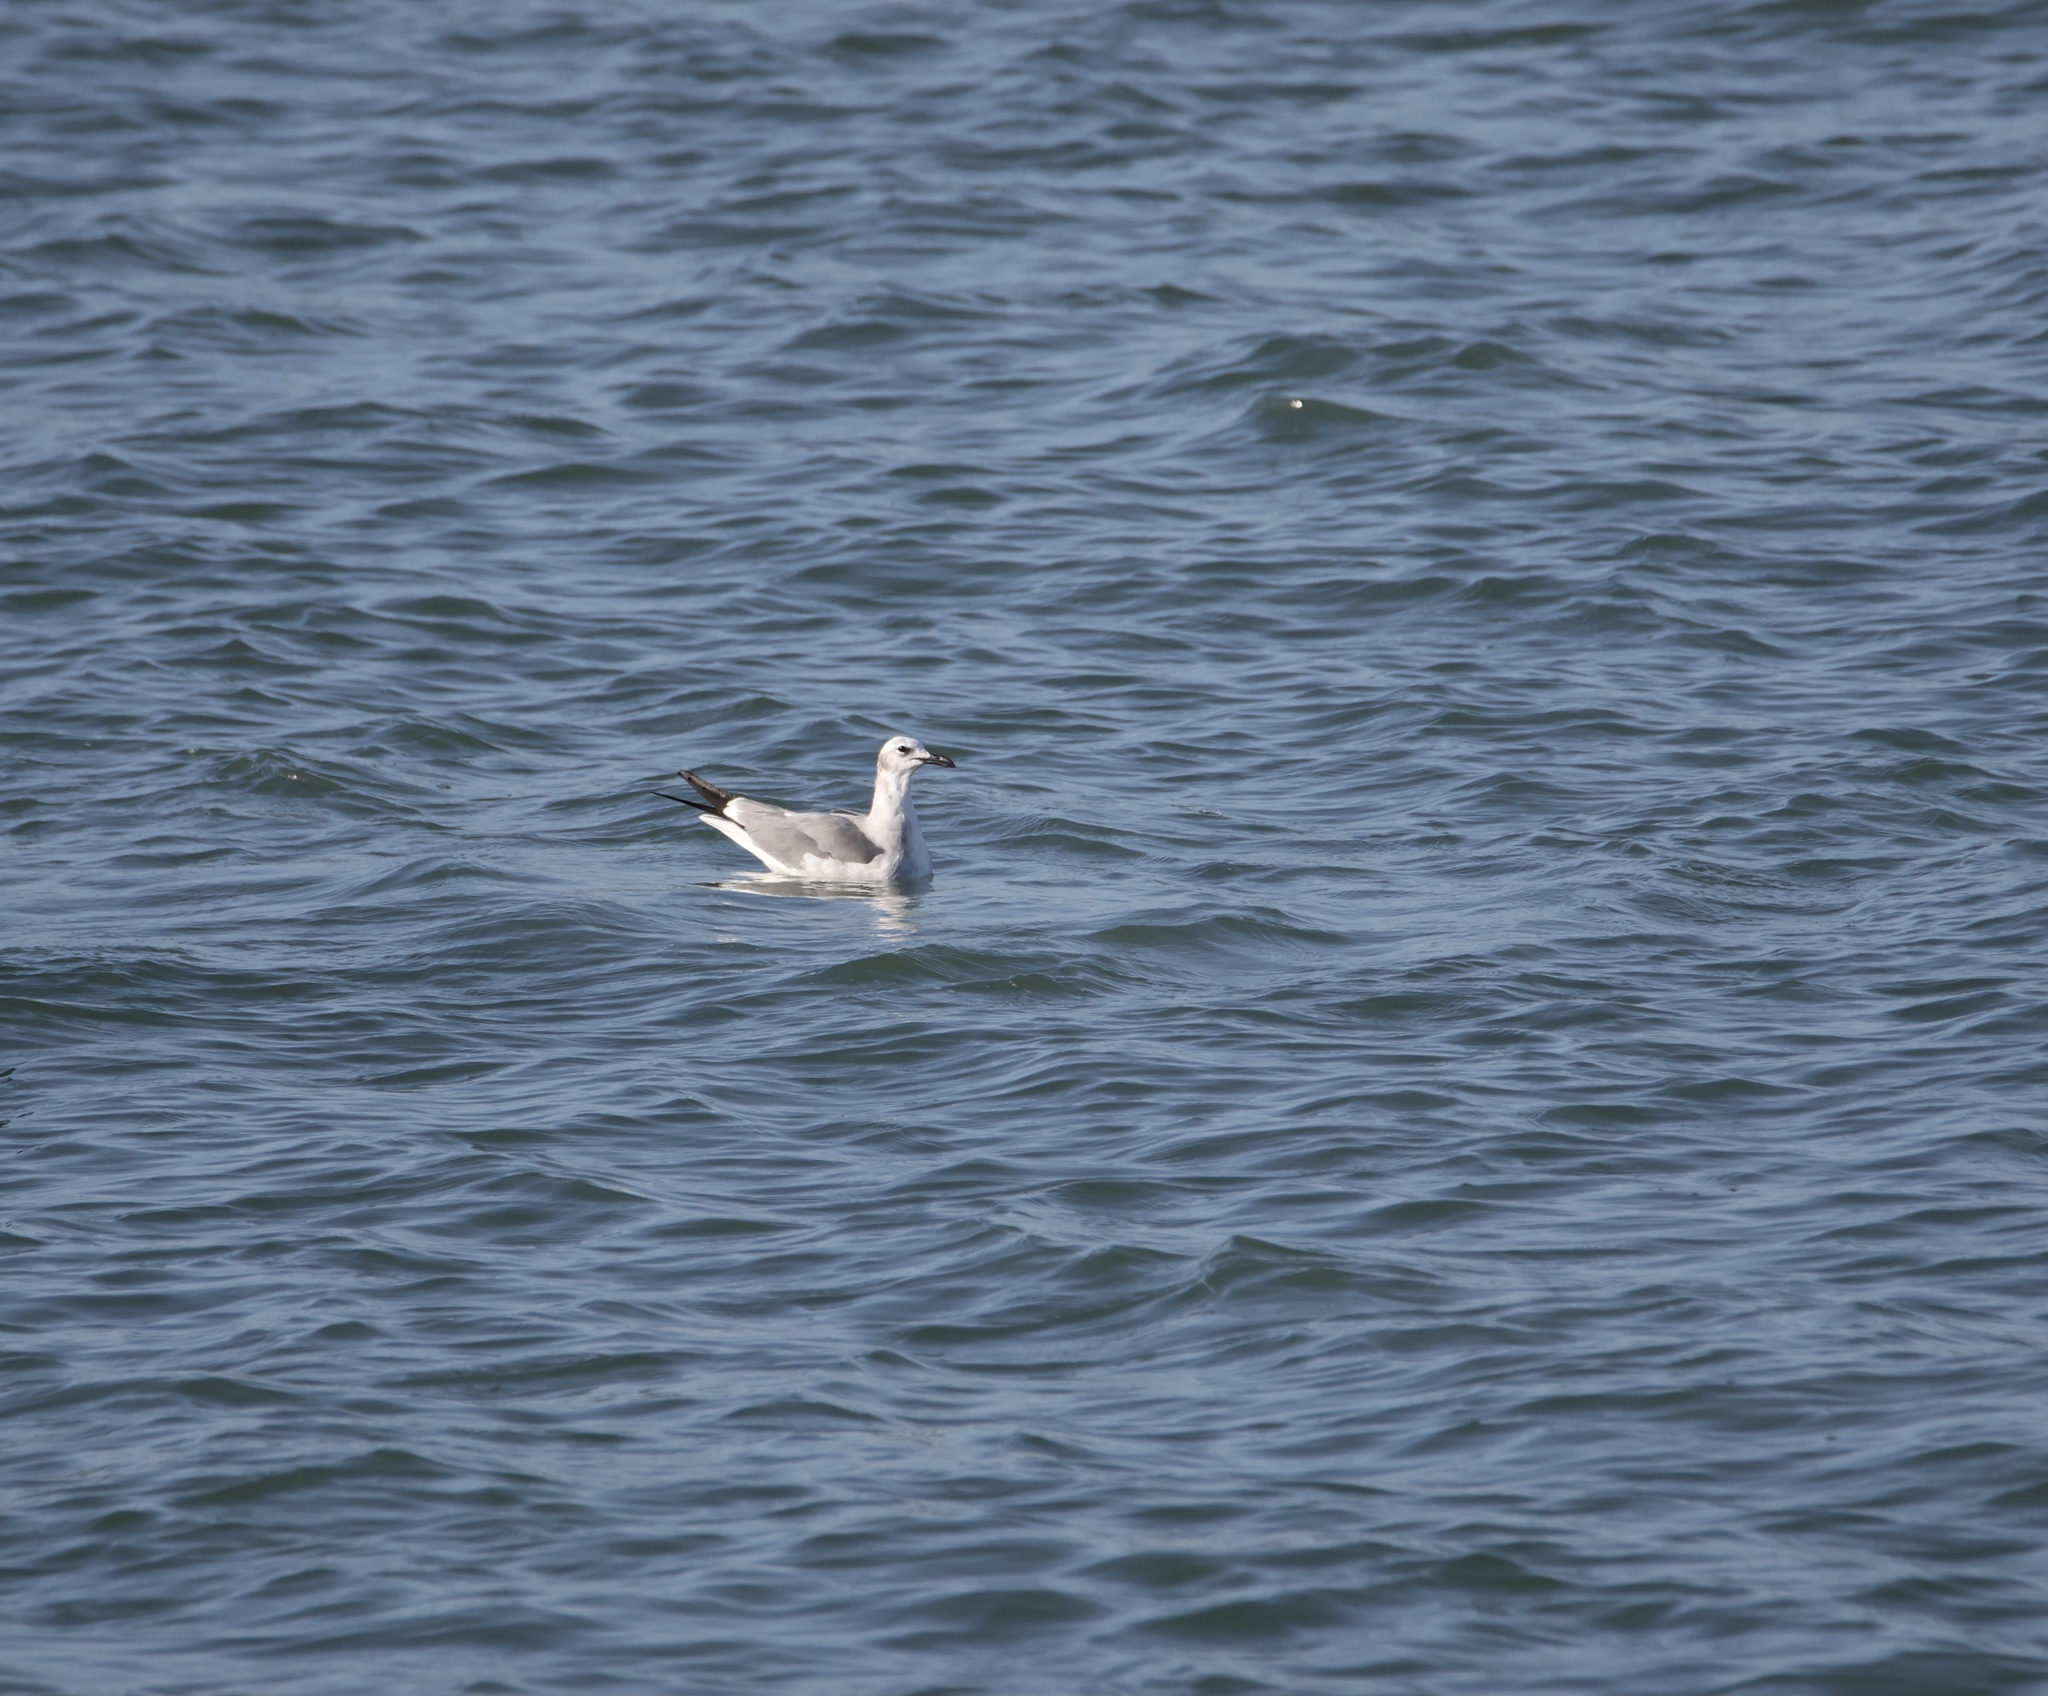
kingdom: Animalia
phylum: Chordata
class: Aves
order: Charadriiformes
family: Laridae
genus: Leucophaeus
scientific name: Leucophaeus atricilla
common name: Laughing gull
